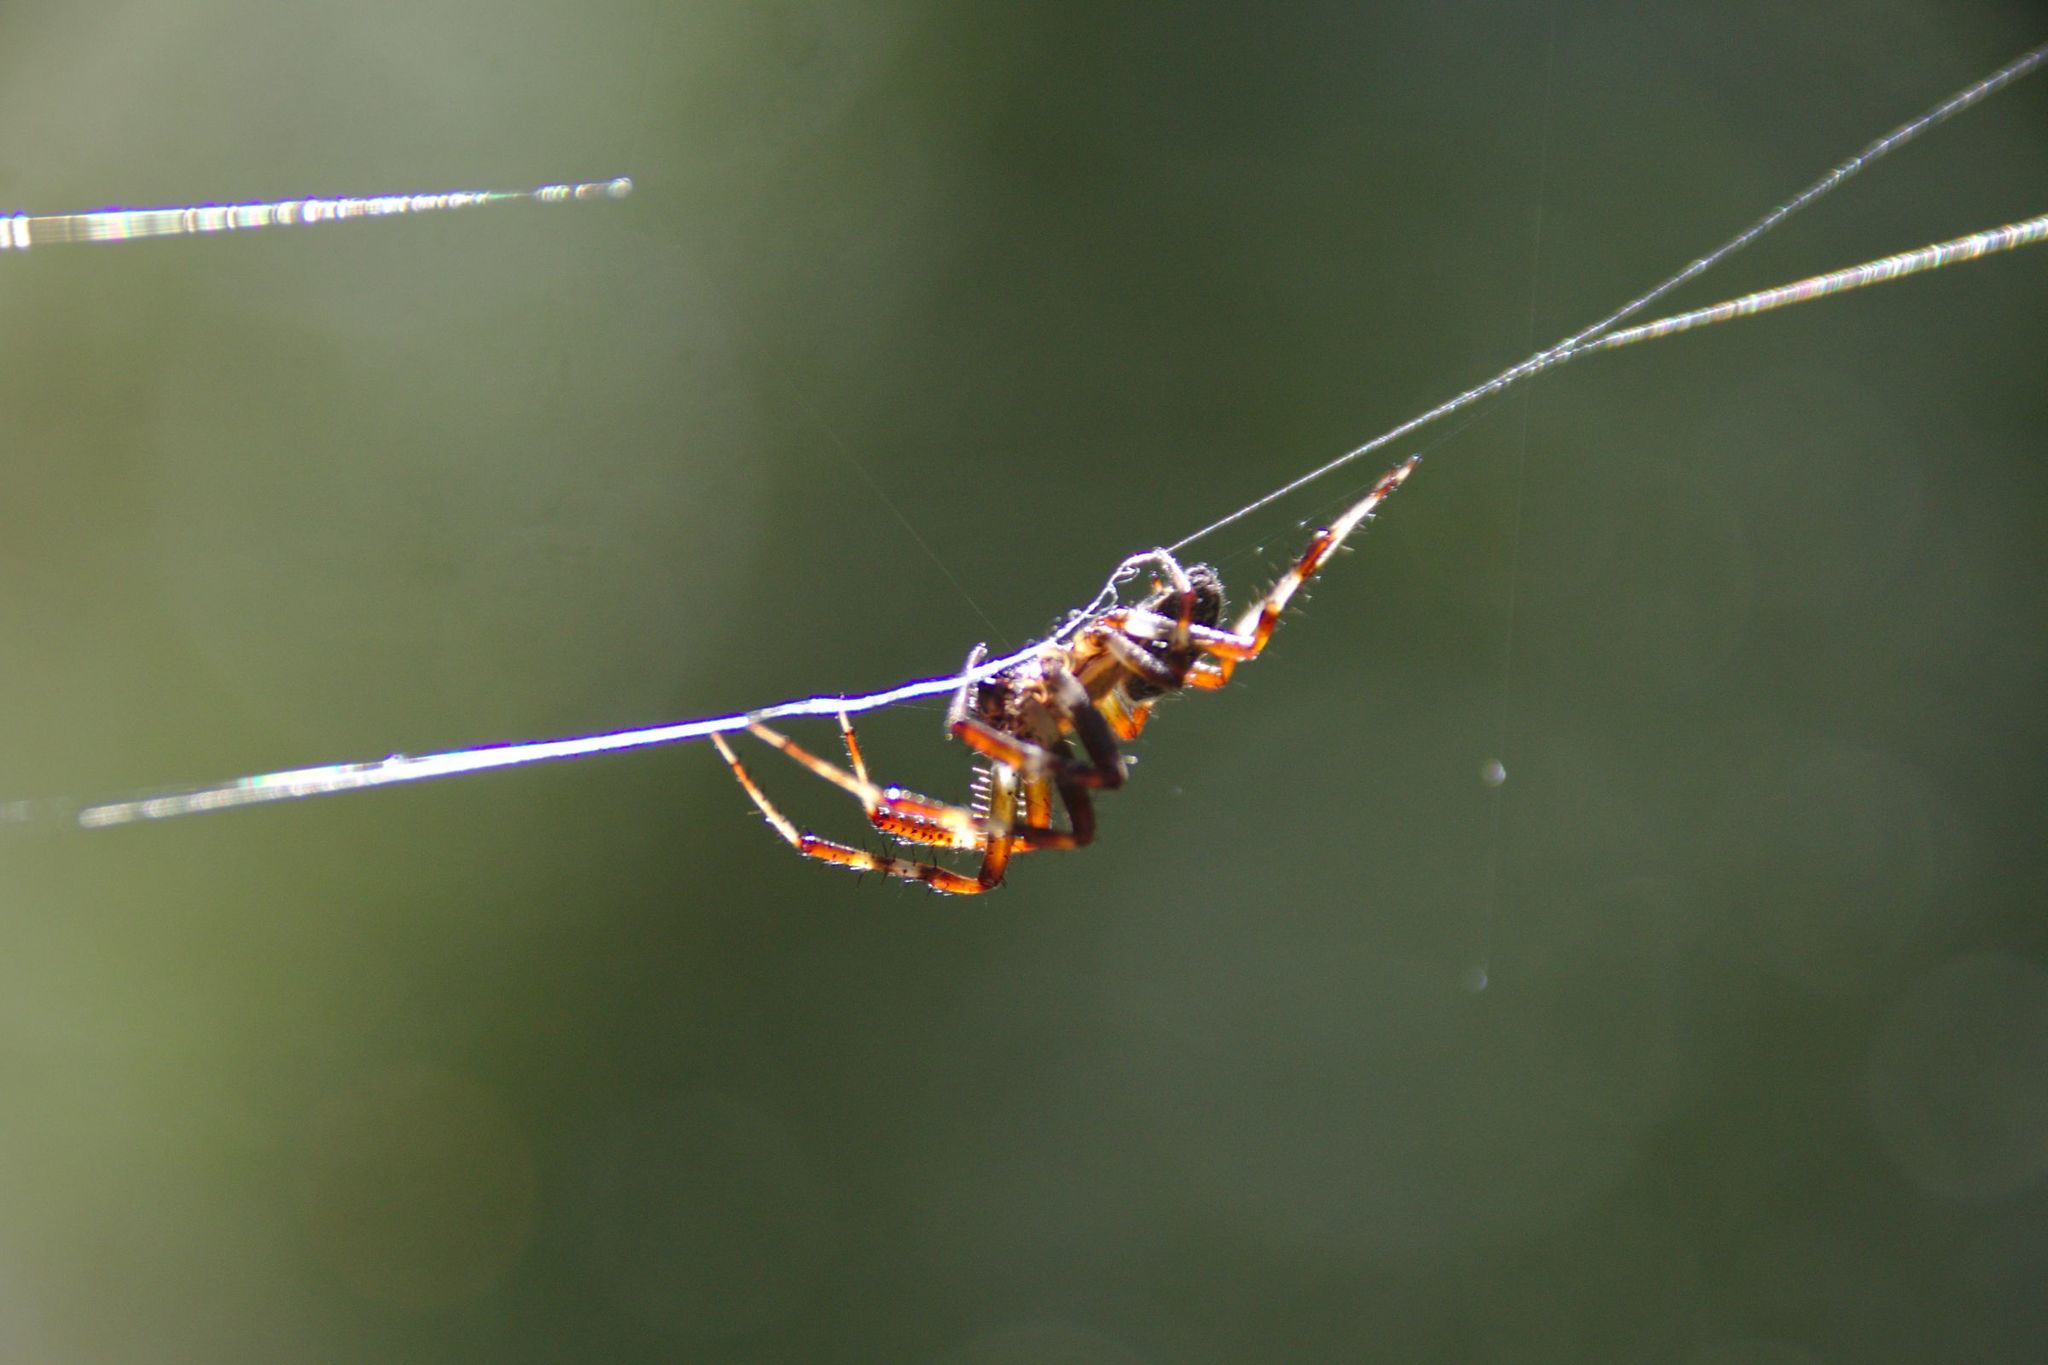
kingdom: Animalia
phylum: Arthropoda
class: Arachnida
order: Araneae
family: Araneidae
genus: Araneus
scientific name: Araneus marmoreus
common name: Marbled orbweaver
